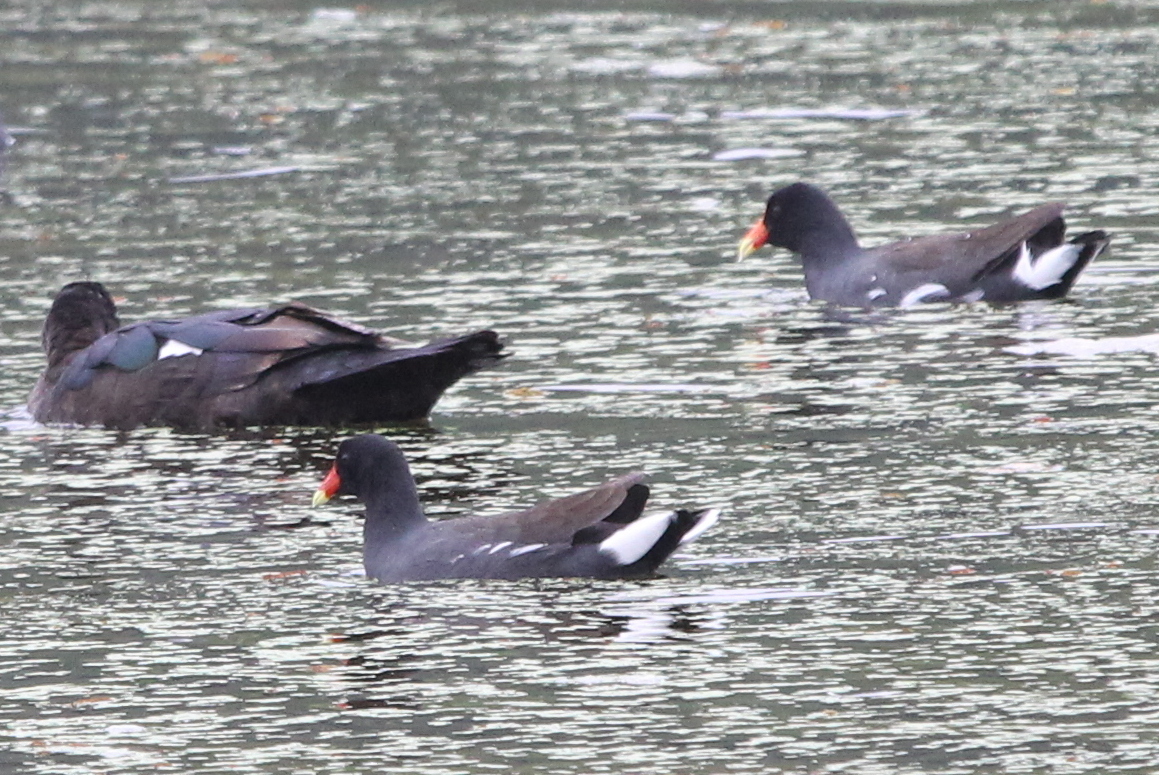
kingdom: Animalia
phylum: Chordata
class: Aves
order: Gruiformes
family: Rallidae
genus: Gallinula
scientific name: Gallinula chloropus
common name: Common moorhen
